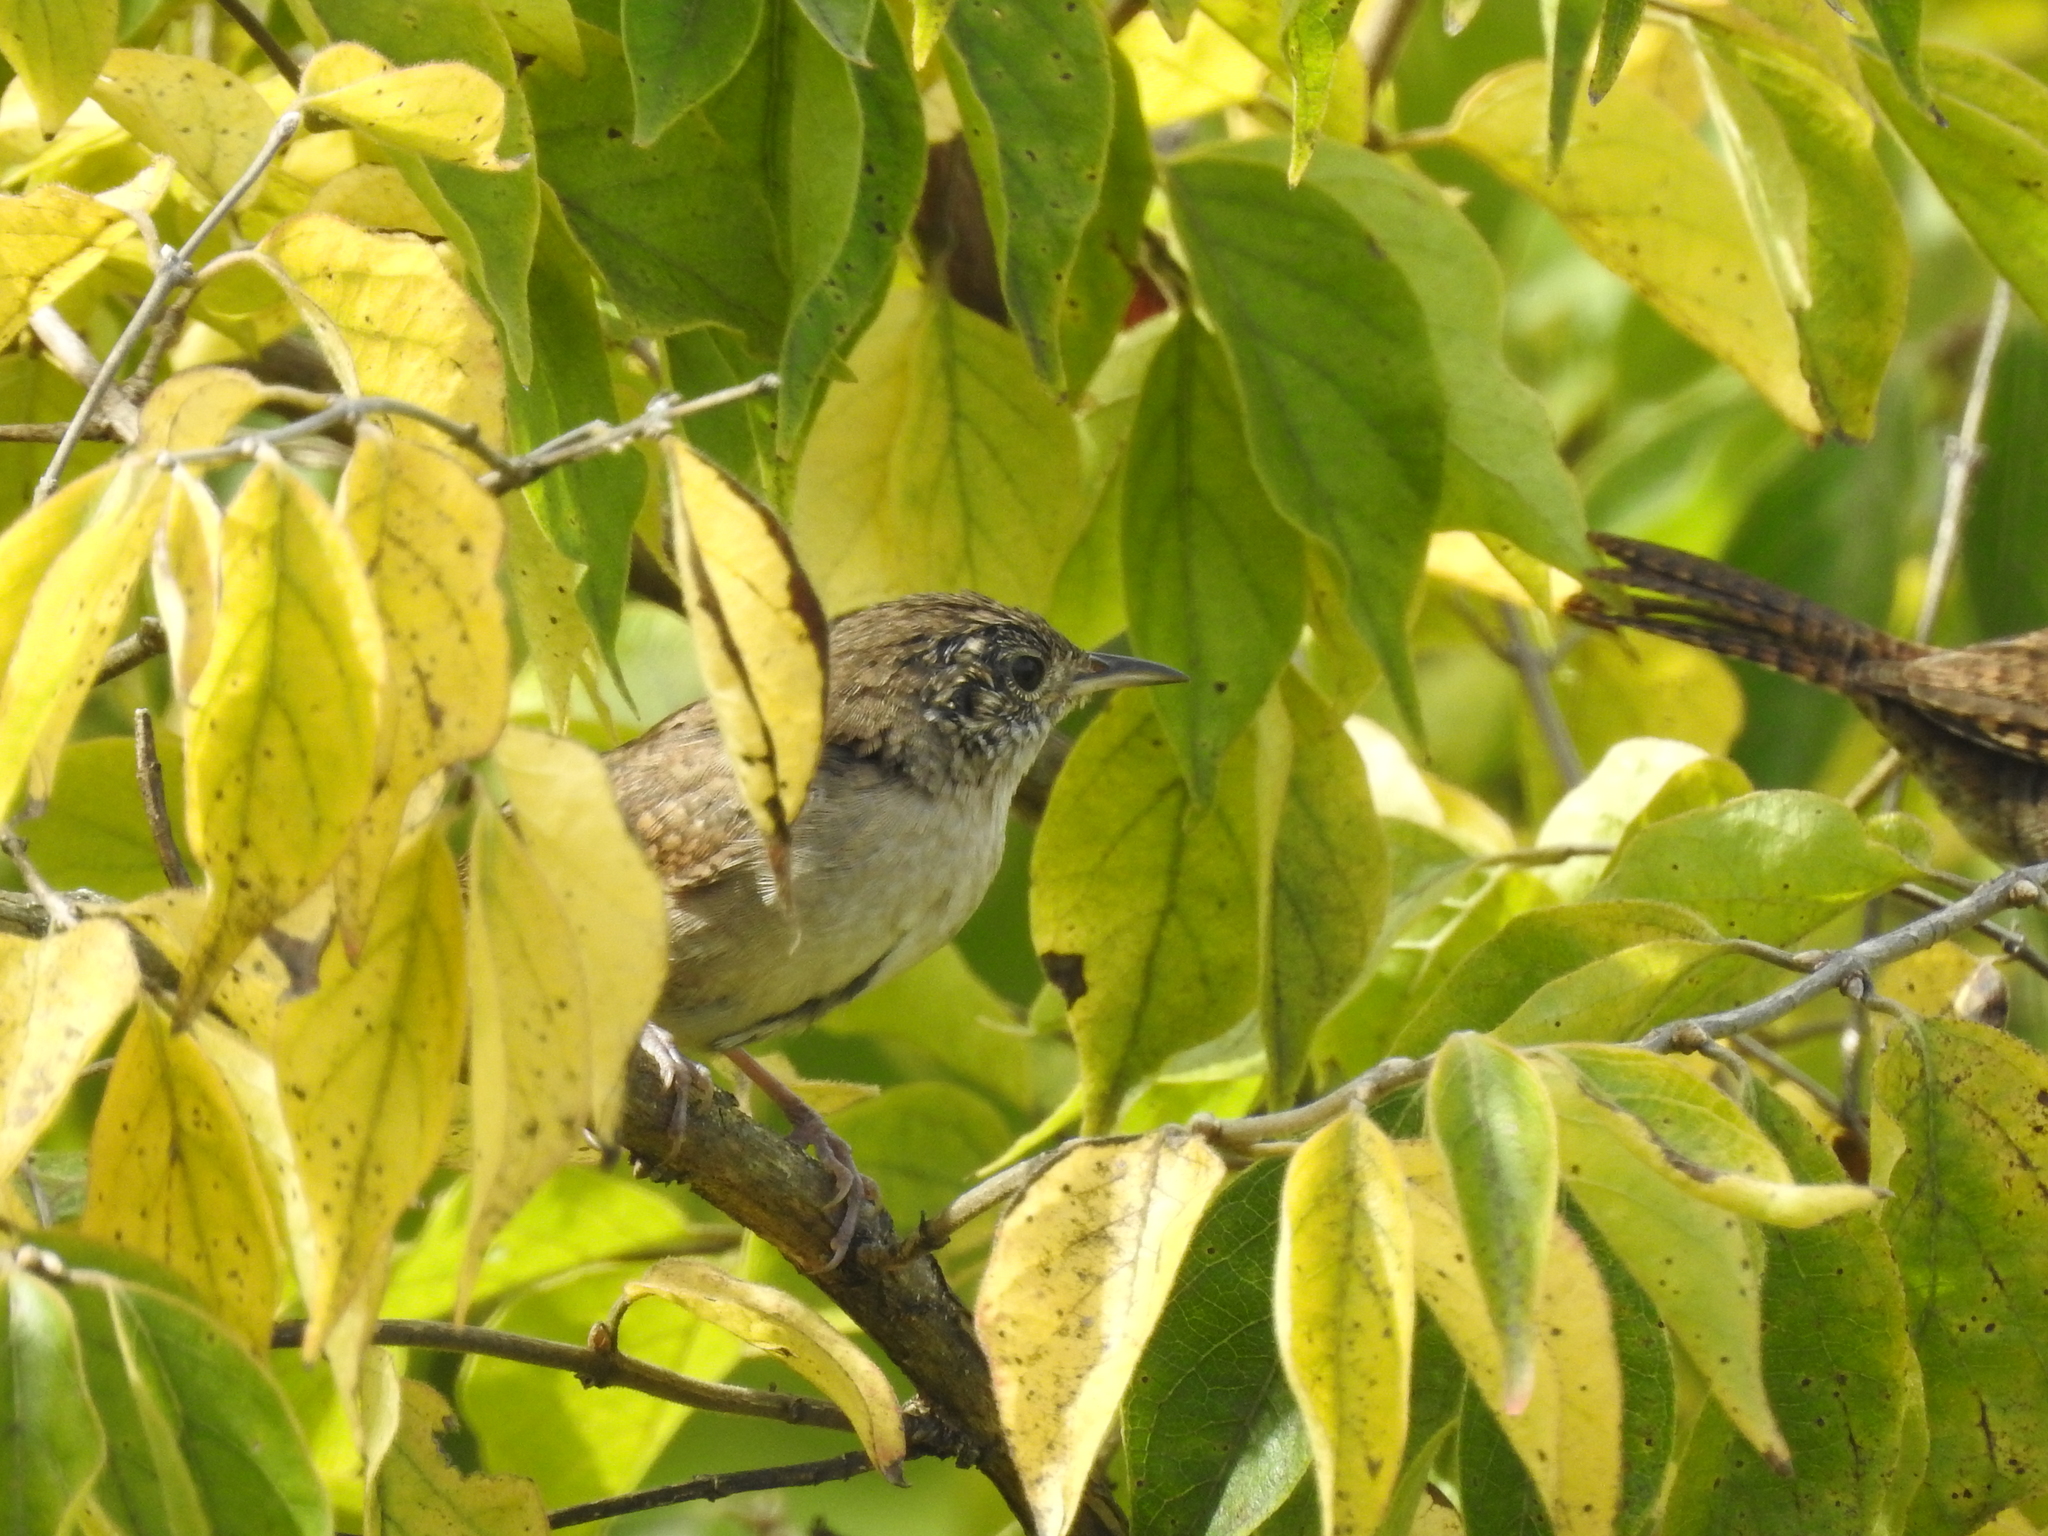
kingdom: Animalia
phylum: Chordata
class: Aves
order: Passeriformes
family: Troglodytidae
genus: Troglodytes
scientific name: Troglodytes aedon
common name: House wren
